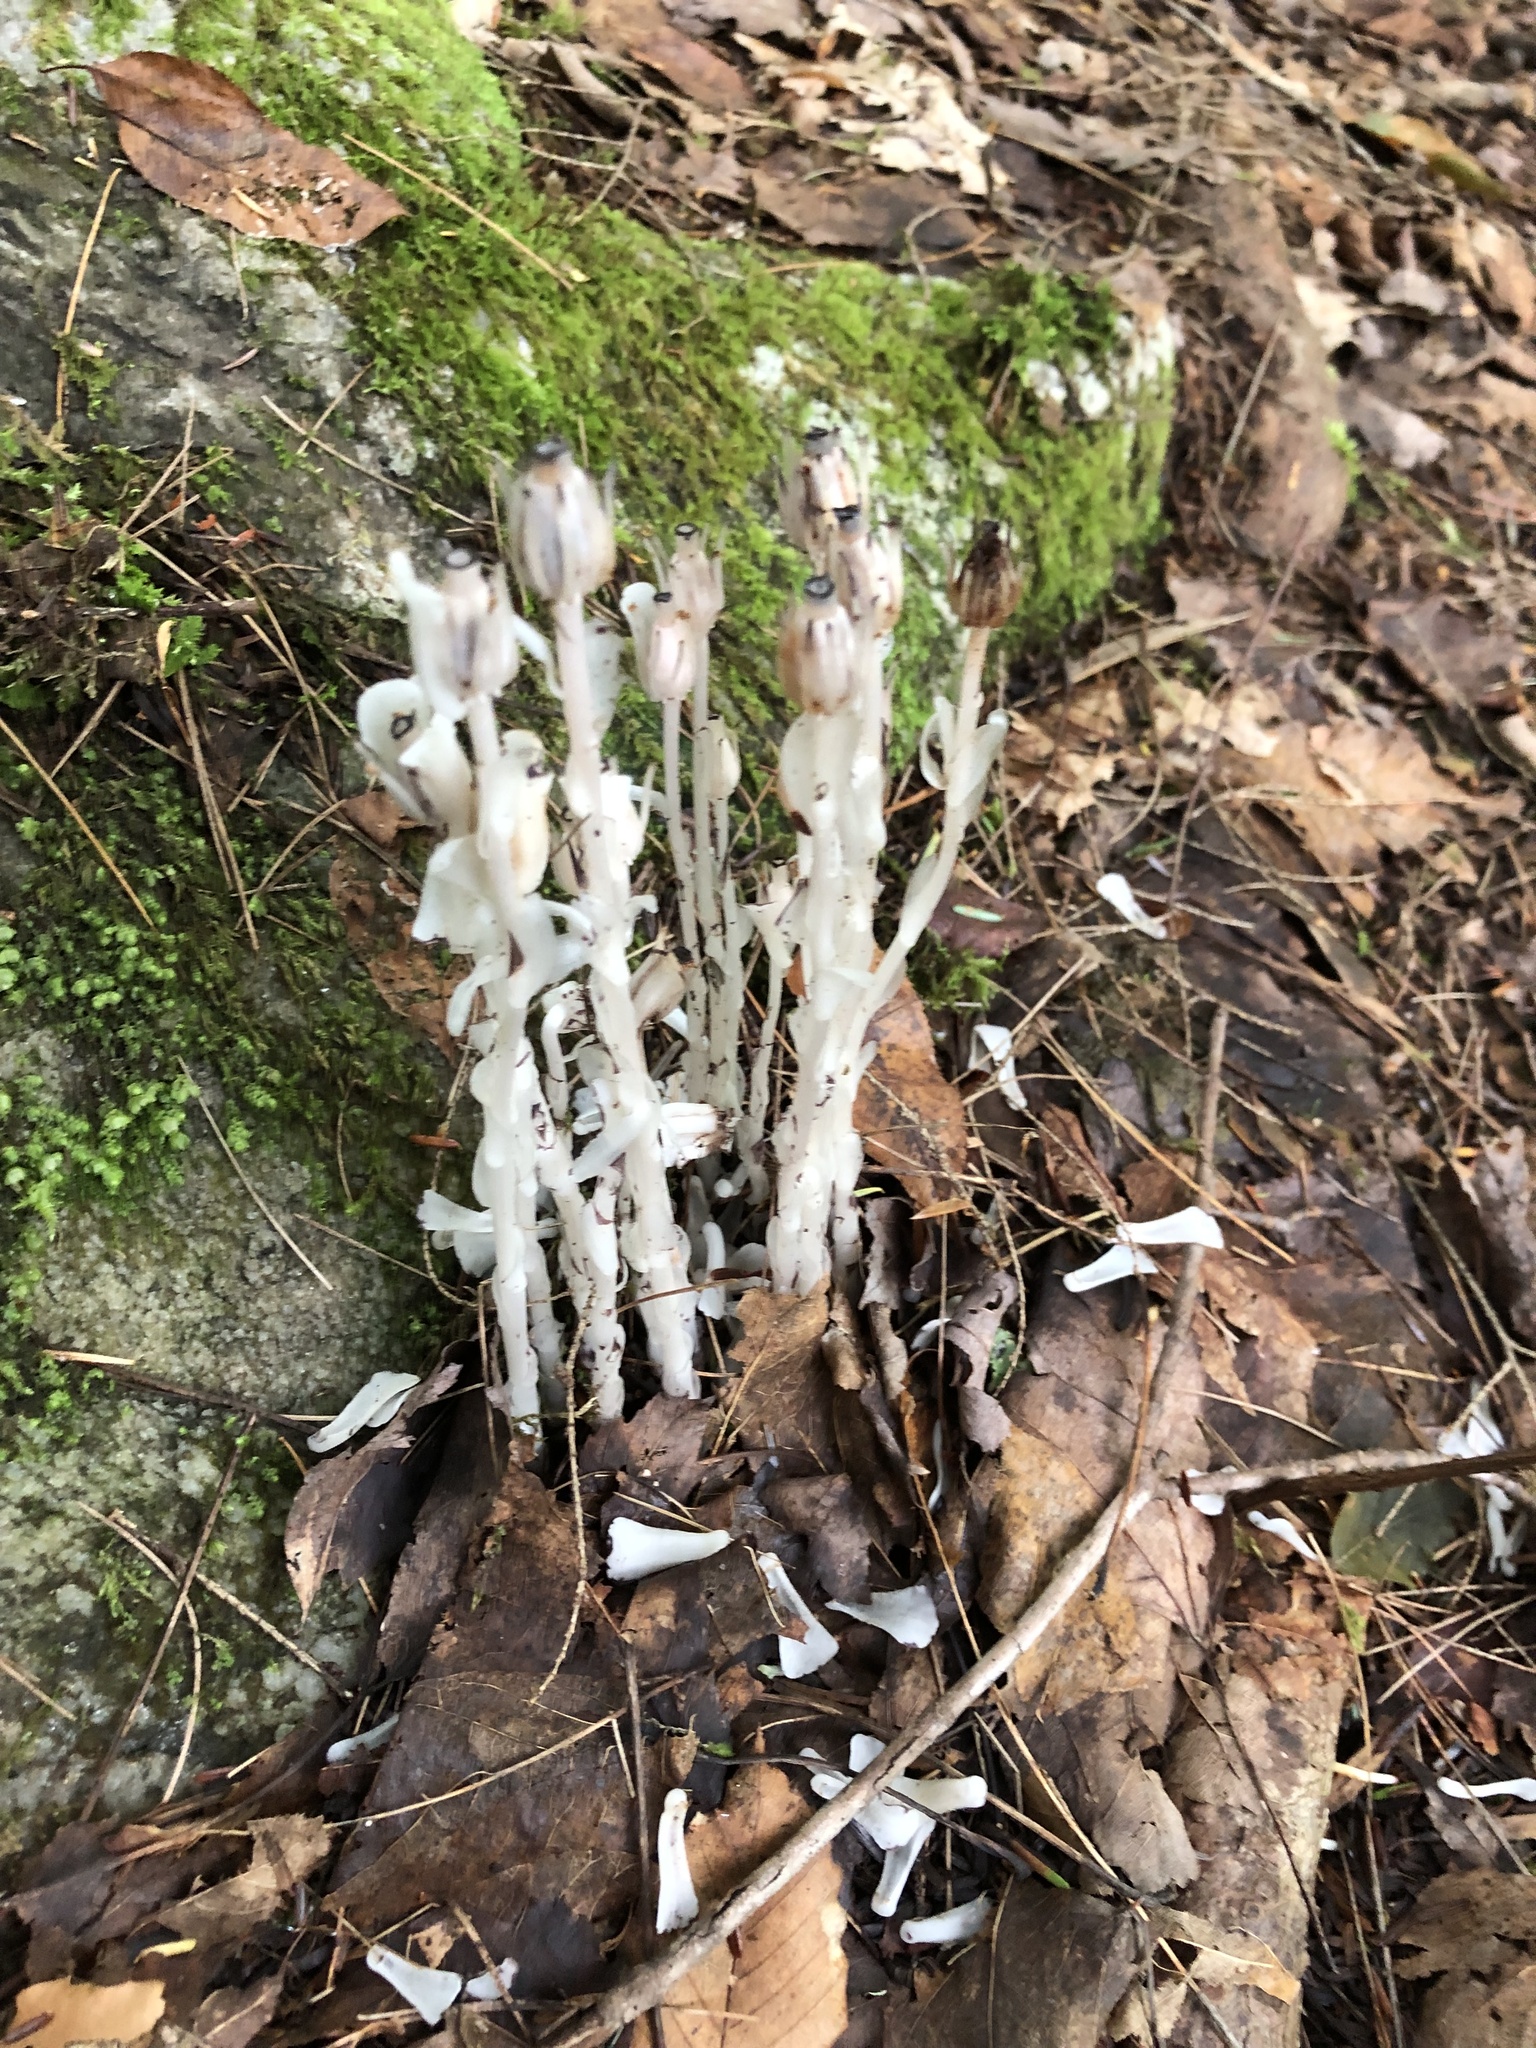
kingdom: Plantae
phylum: Tracheophyta
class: Magnoliopsida
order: Ericales
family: Ericaceae
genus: Monotropa
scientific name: Monotropa uniflora
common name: Convulsion root
